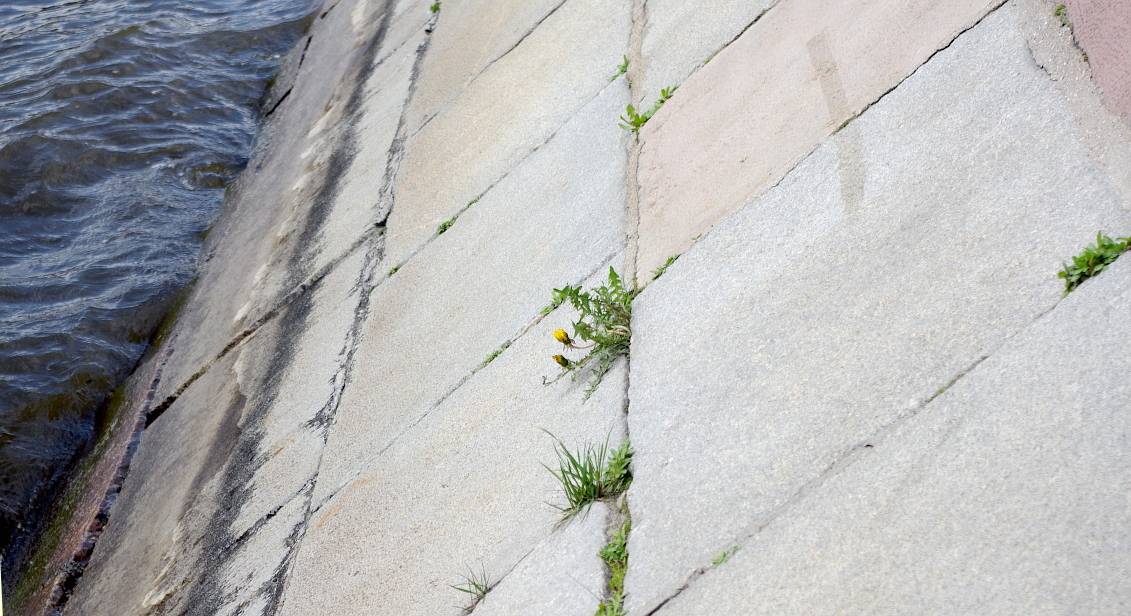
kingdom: Plantae
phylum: Tracheophyta
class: Magnoliopsida
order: Asterales
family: Asteraceae
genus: Taraxacum
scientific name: Taraxacum officinale
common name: Common dandelion
